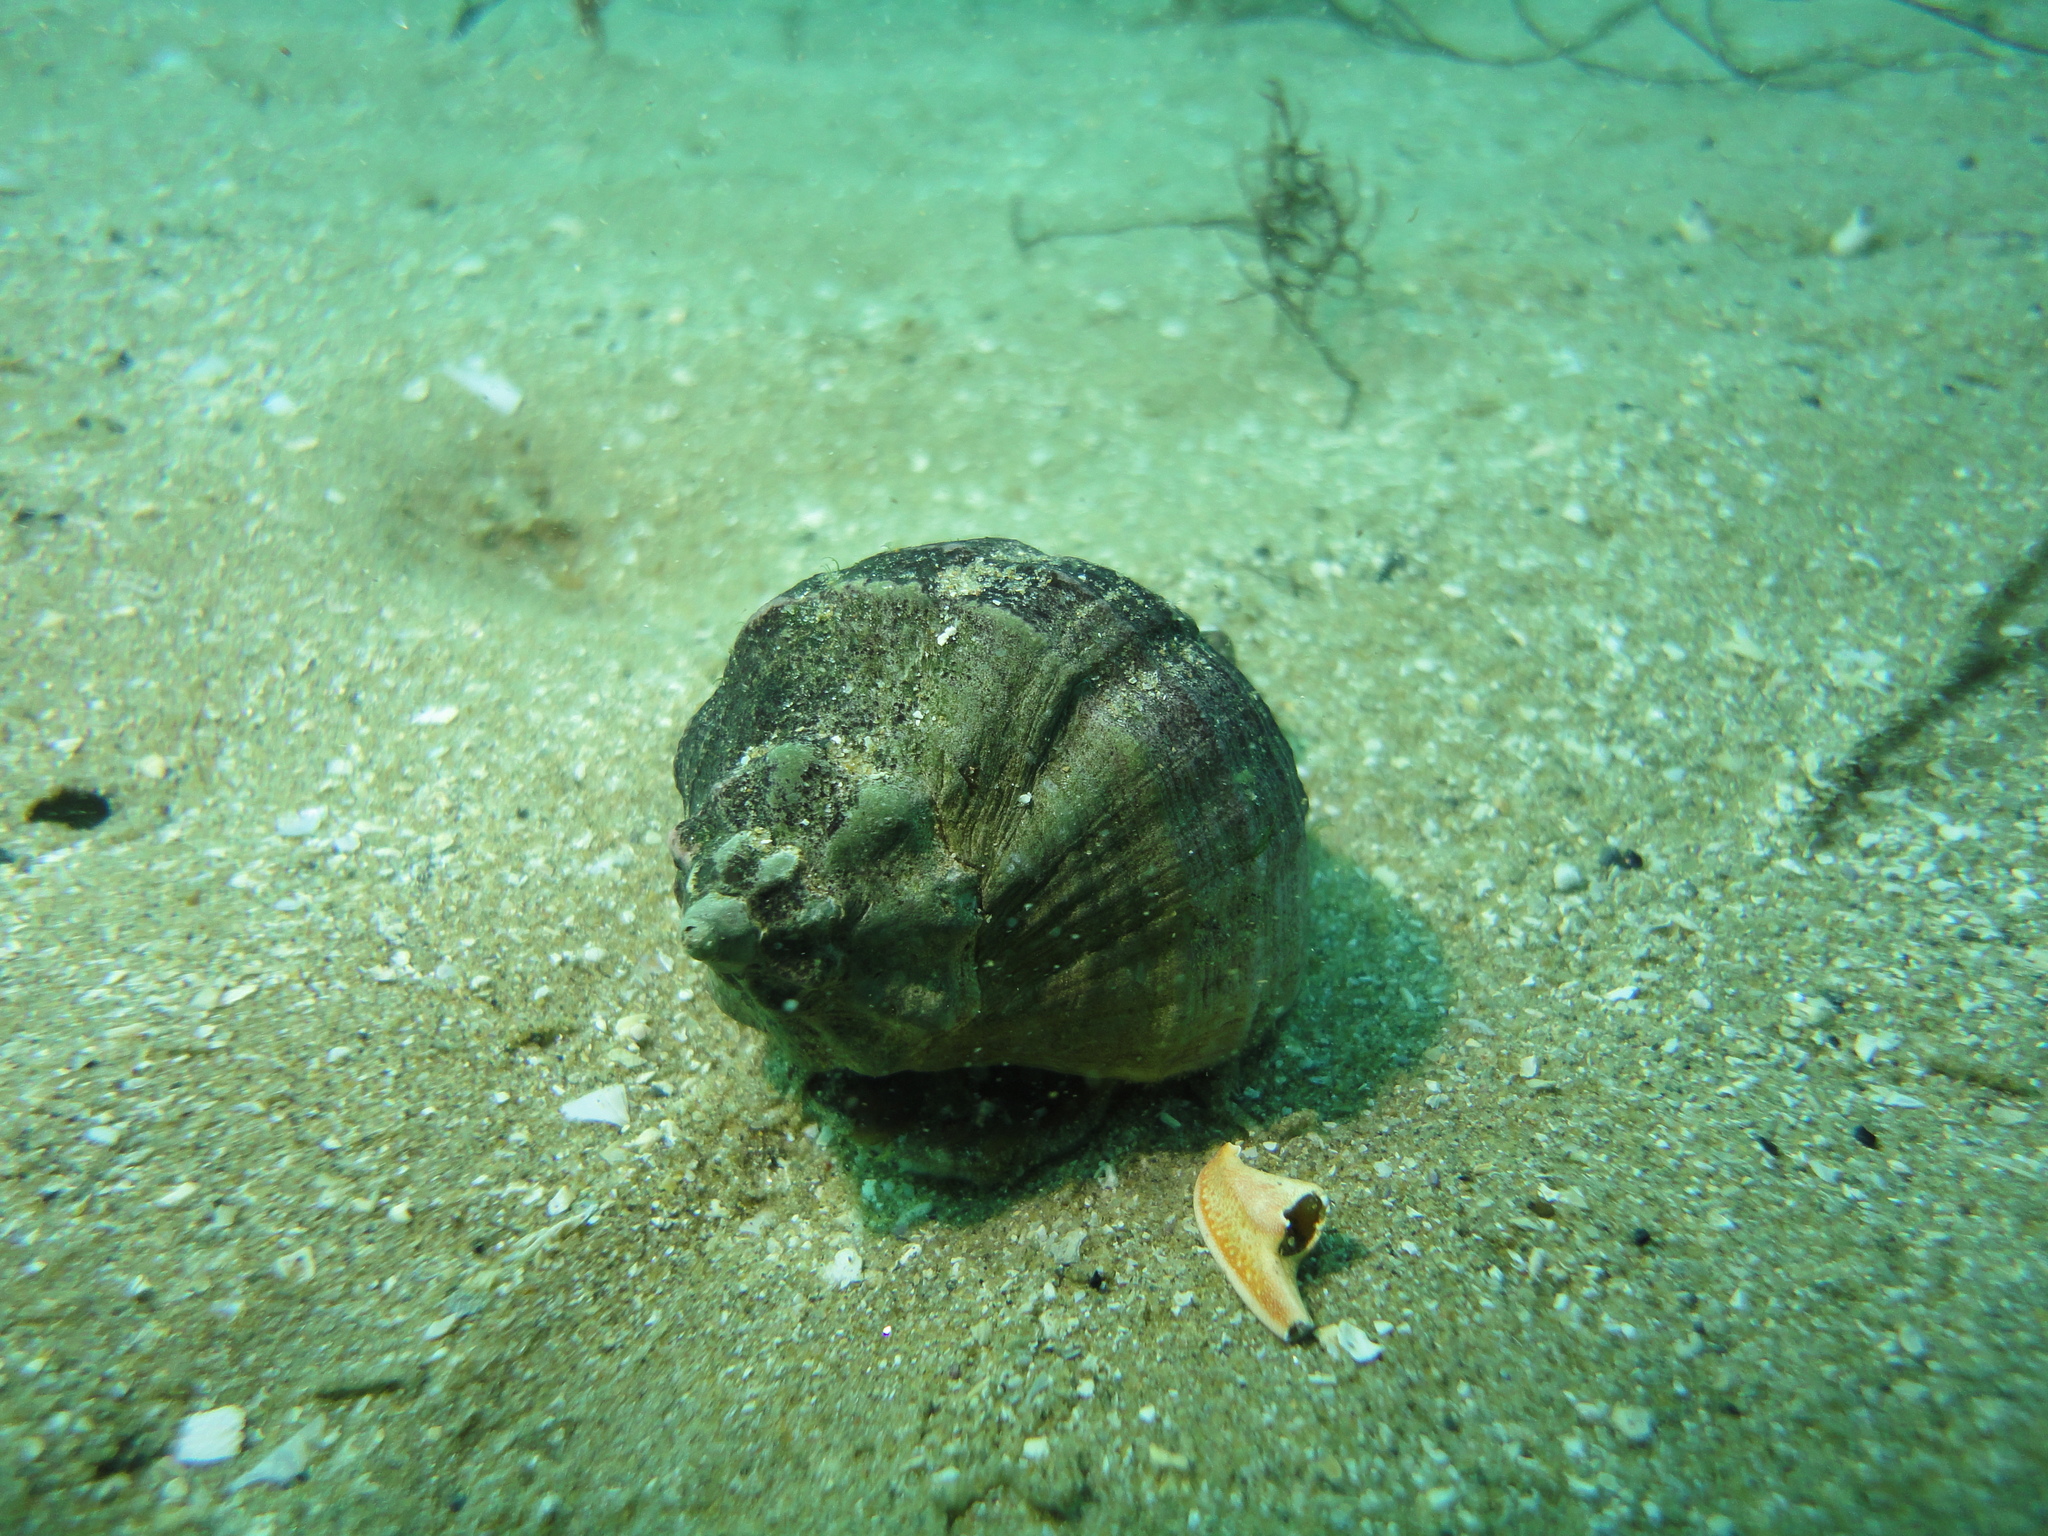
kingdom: Animalia
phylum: Mollusca
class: Gastropoda
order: Neogastropoda
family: Muricidae
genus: Xanthochorus
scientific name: Xanthochorus cassidiformis
